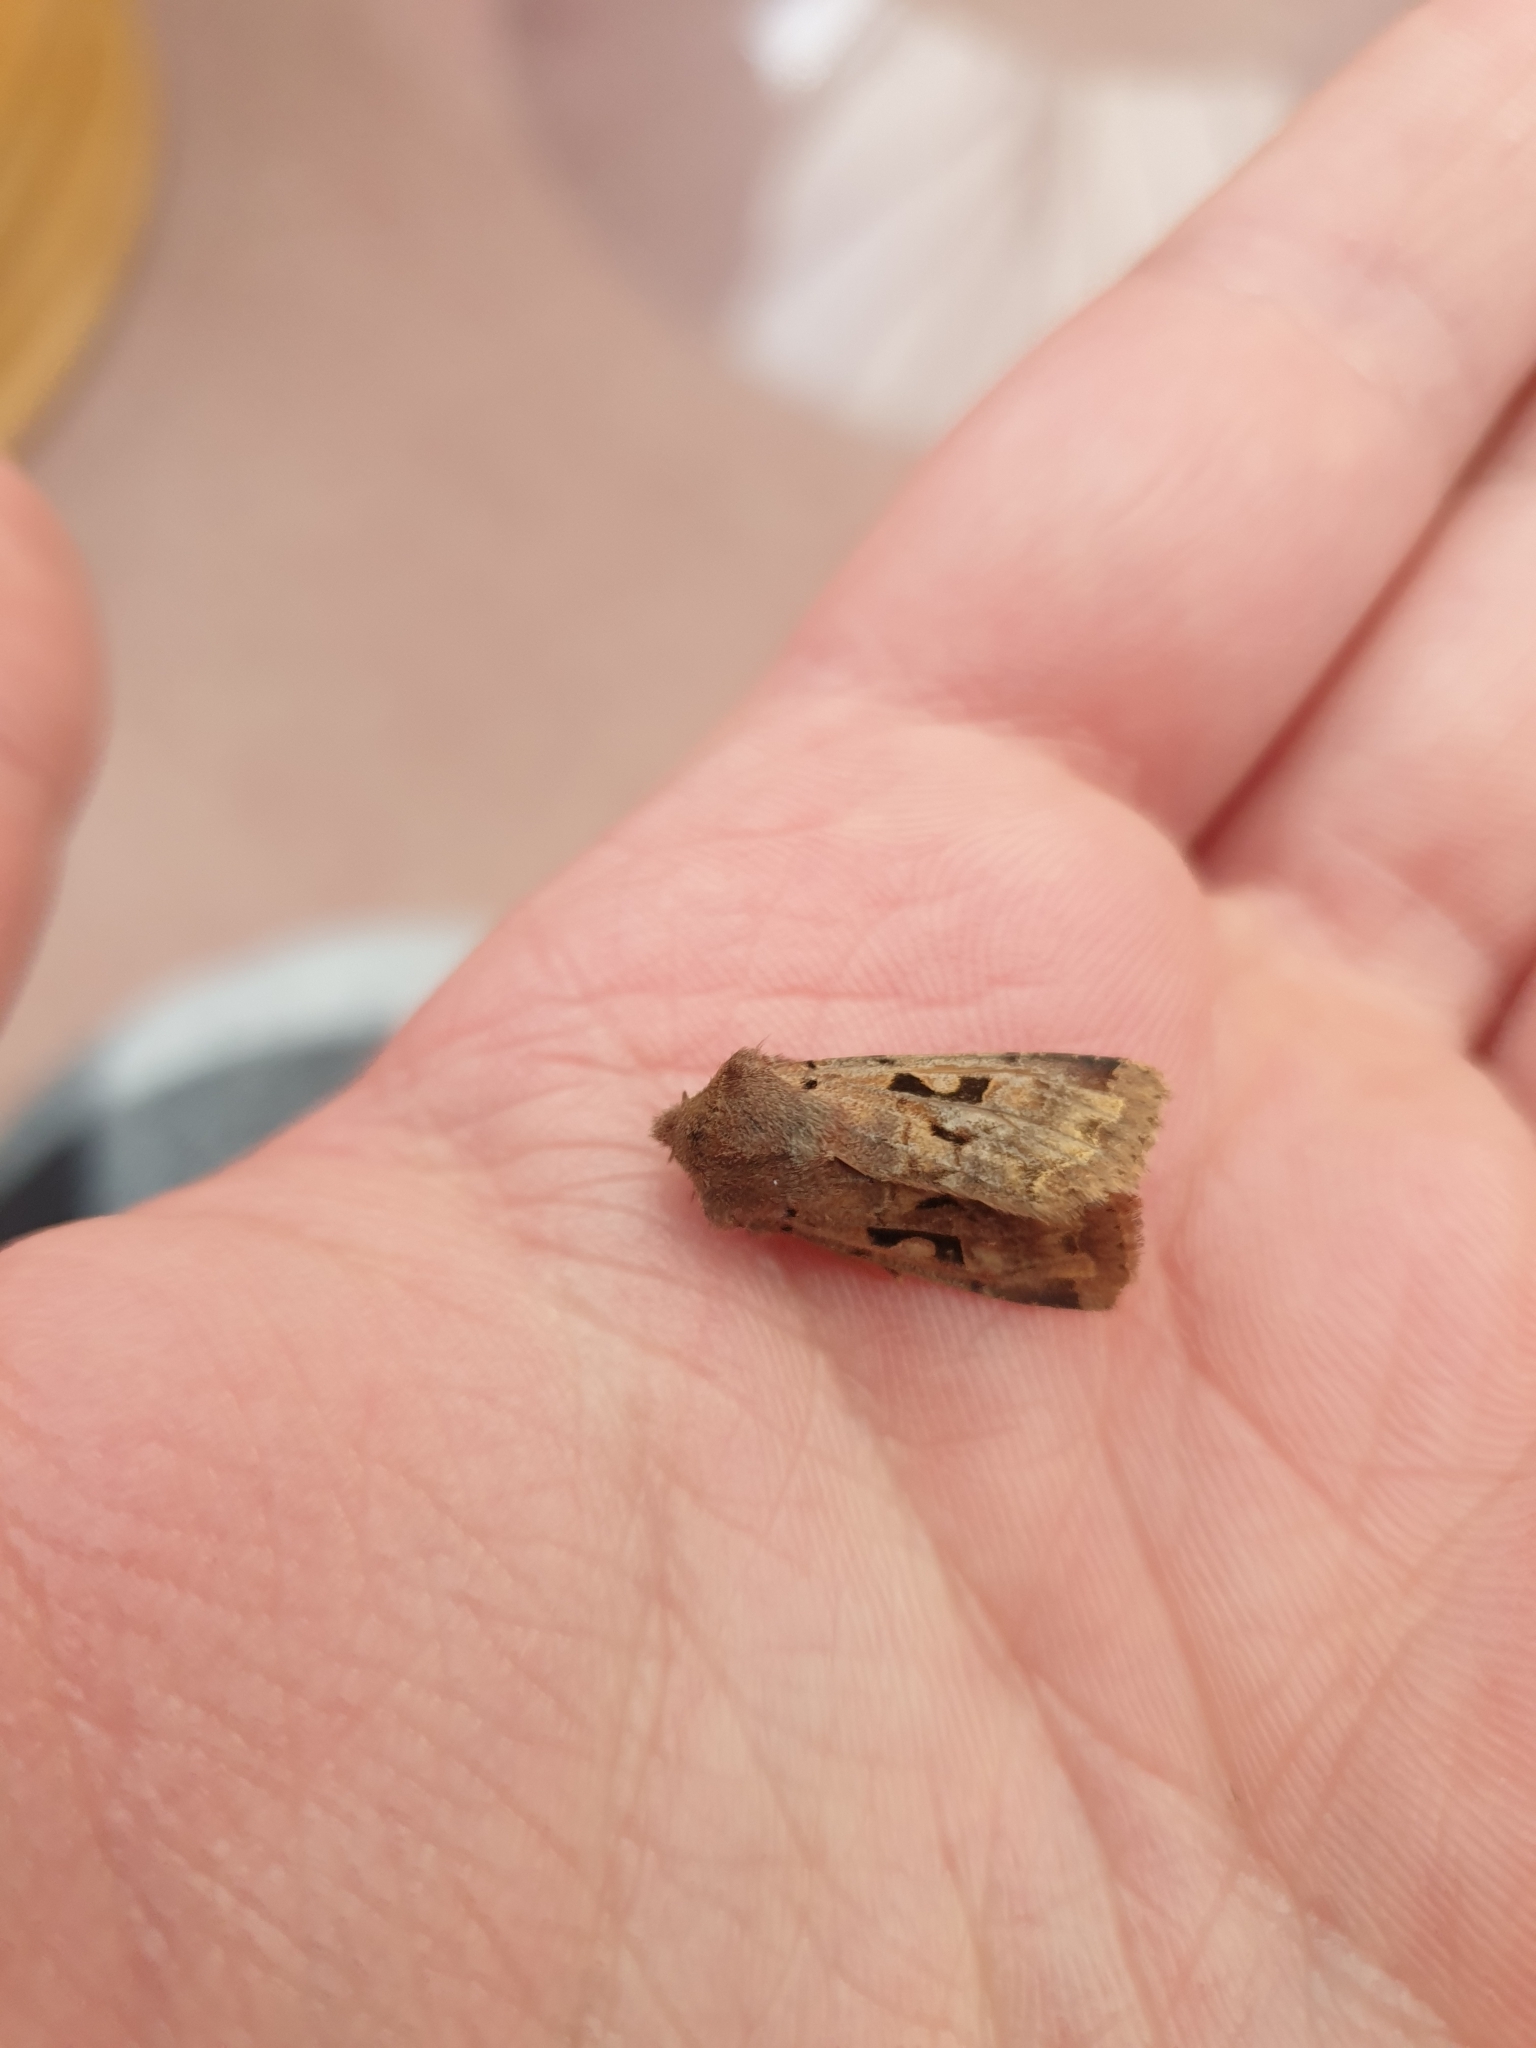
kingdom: Animalia
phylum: Arthropoda
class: Insecta
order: Lepidoptera
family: Noctuidae
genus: Orthosia
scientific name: Orthosia gothica
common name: Hebrew character
